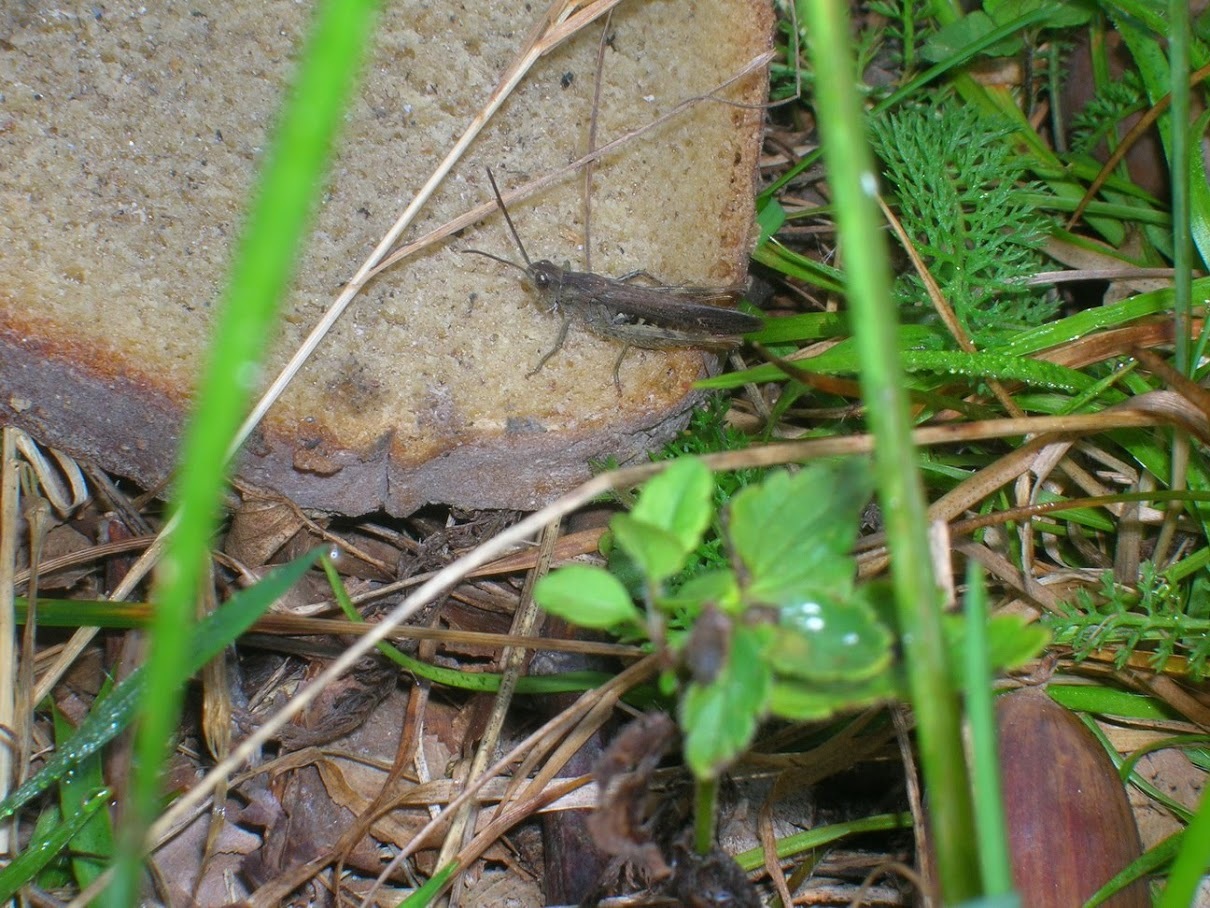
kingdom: Animalia
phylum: Arthropoda
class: Insecta
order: Orthoptera
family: Acrididae
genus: Chorthippus
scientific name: Chorthippus brunneus
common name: Field grasshopper
